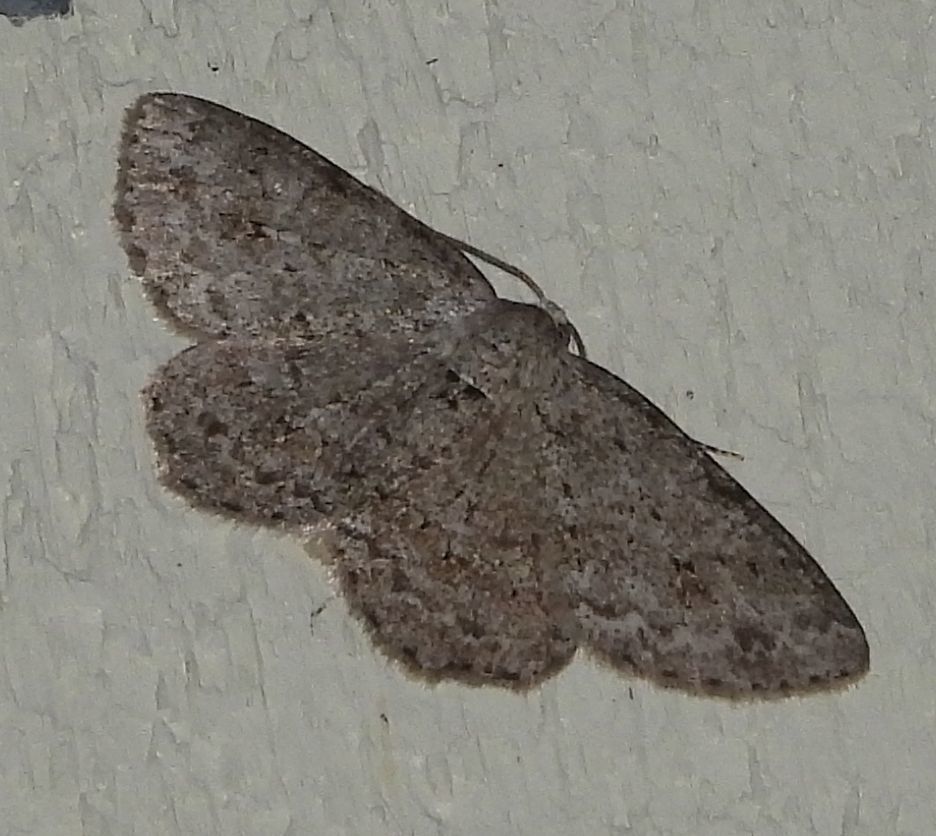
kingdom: Animalia
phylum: Arthropoda
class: Insecta
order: Lepidoptera
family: Geometridae
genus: Ectropis
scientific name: Ectropis crepuscularia
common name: Engrailed
